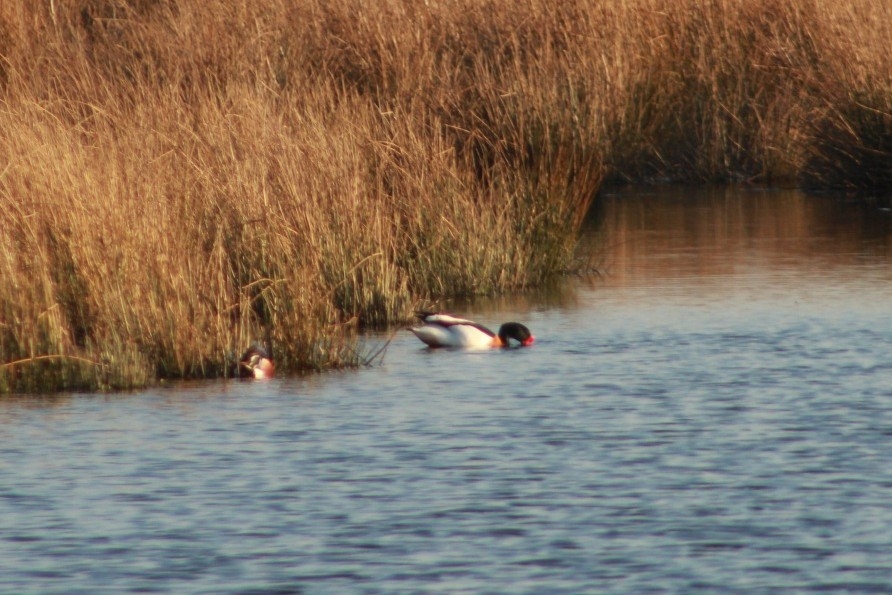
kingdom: Animalia
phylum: Chordata
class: Aves
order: Anseriformes
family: Anatidae
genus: Tadorna
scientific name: Tadorna tadorna
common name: Common shelduck
